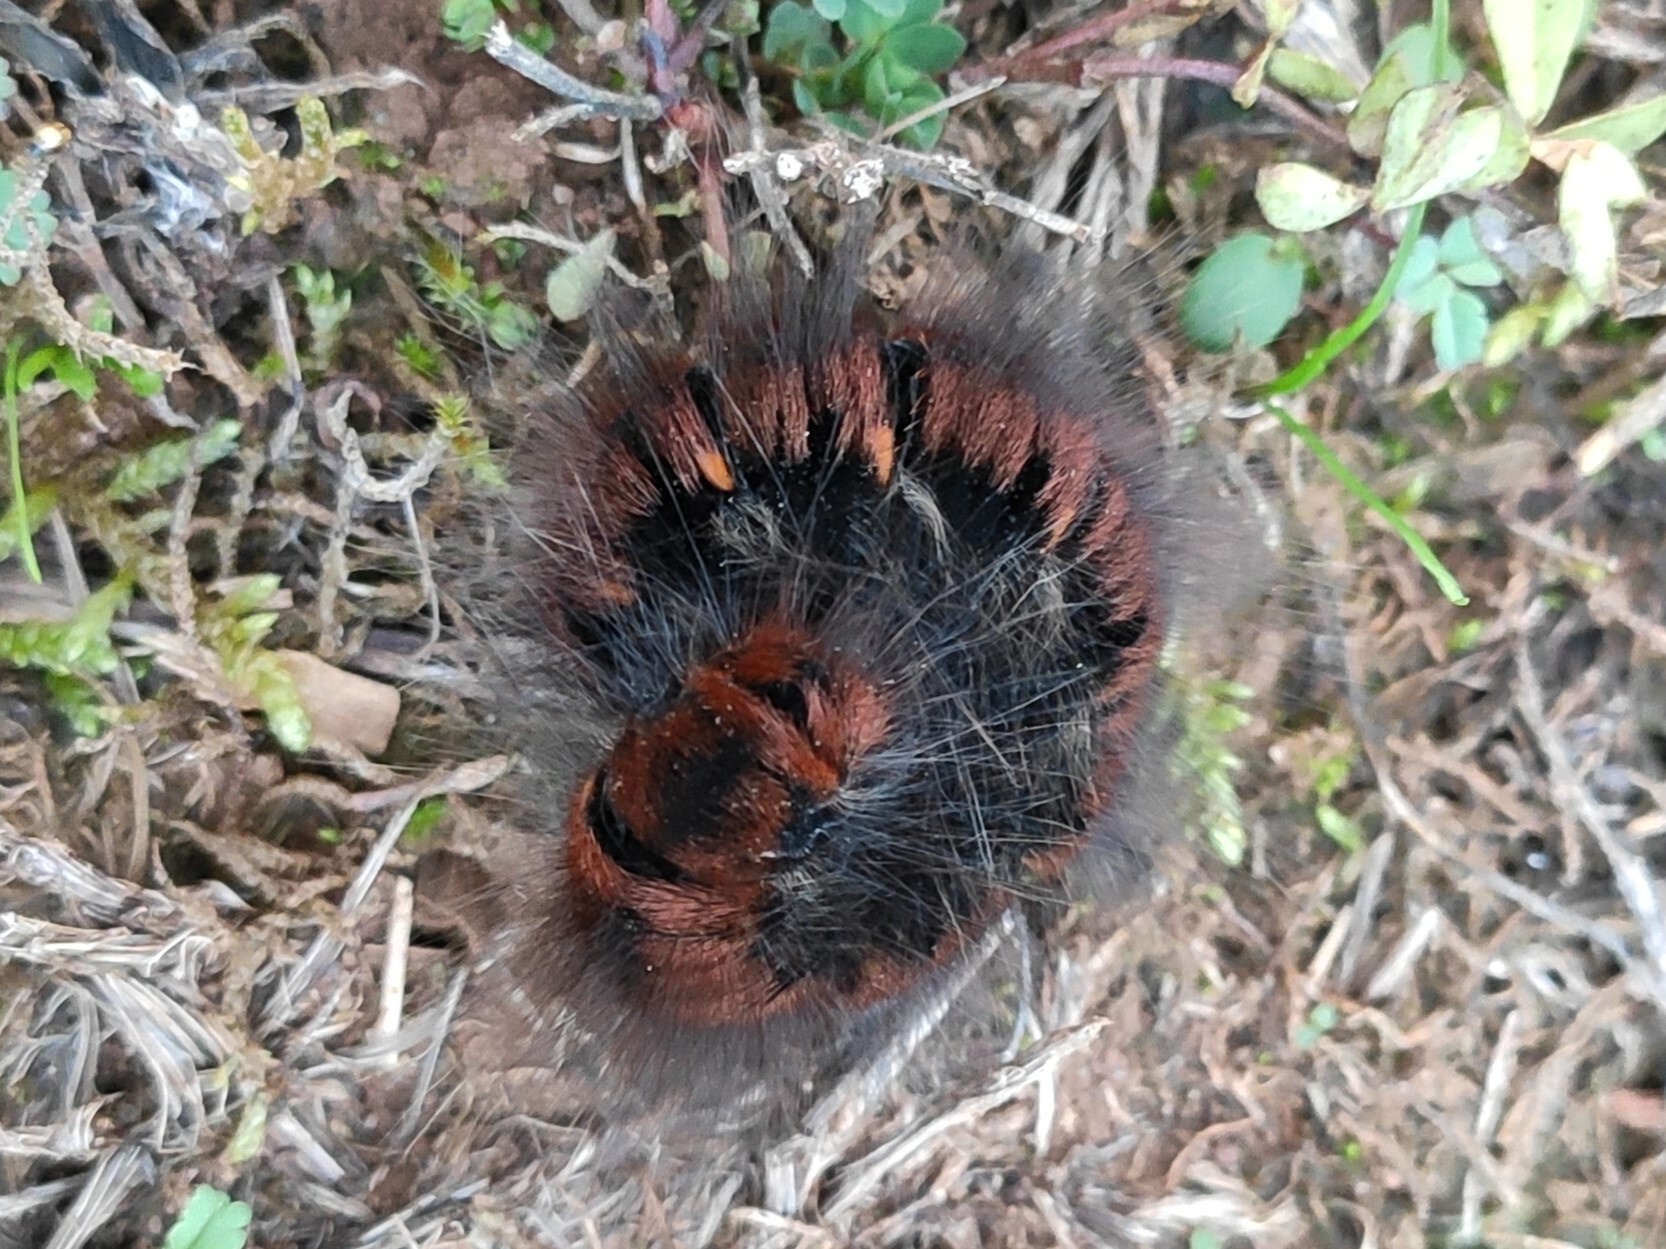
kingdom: Animalia
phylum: Arthropoda
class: Insecta
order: Lepidoptera
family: Lasiocampidae
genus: Macrothylacia
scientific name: Macrothylacia rubi
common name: Fox moth
